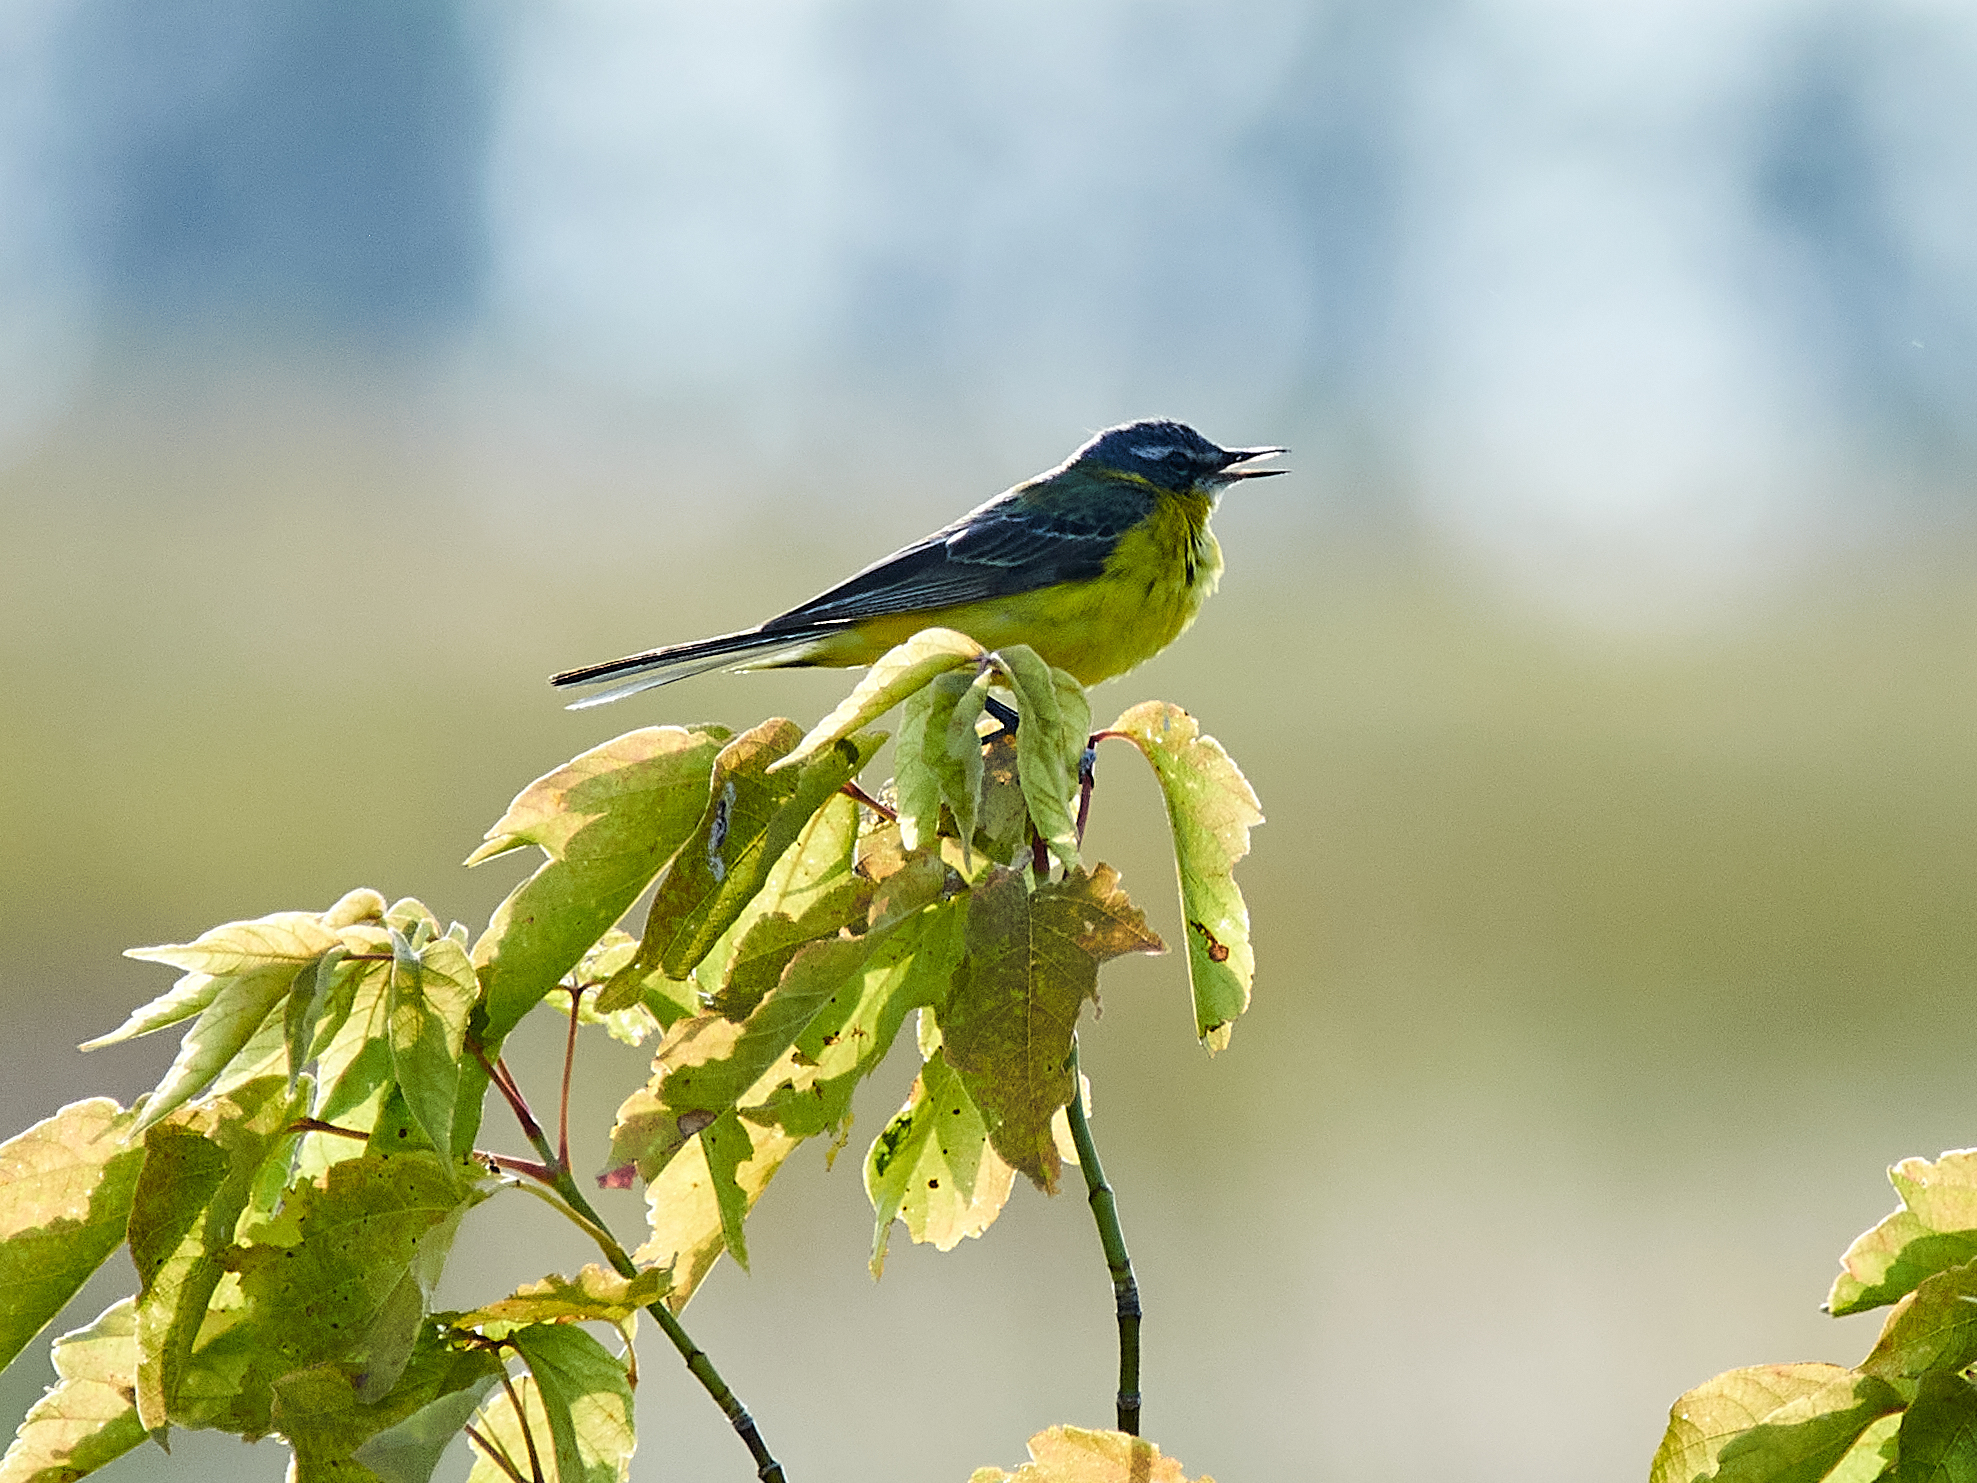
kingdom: Animalia
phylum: Chordata
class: Aves
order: Passeriformes
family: Motacillidae
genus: Motacilla
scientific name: Motacilla flava
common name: Western yellow wagtail
